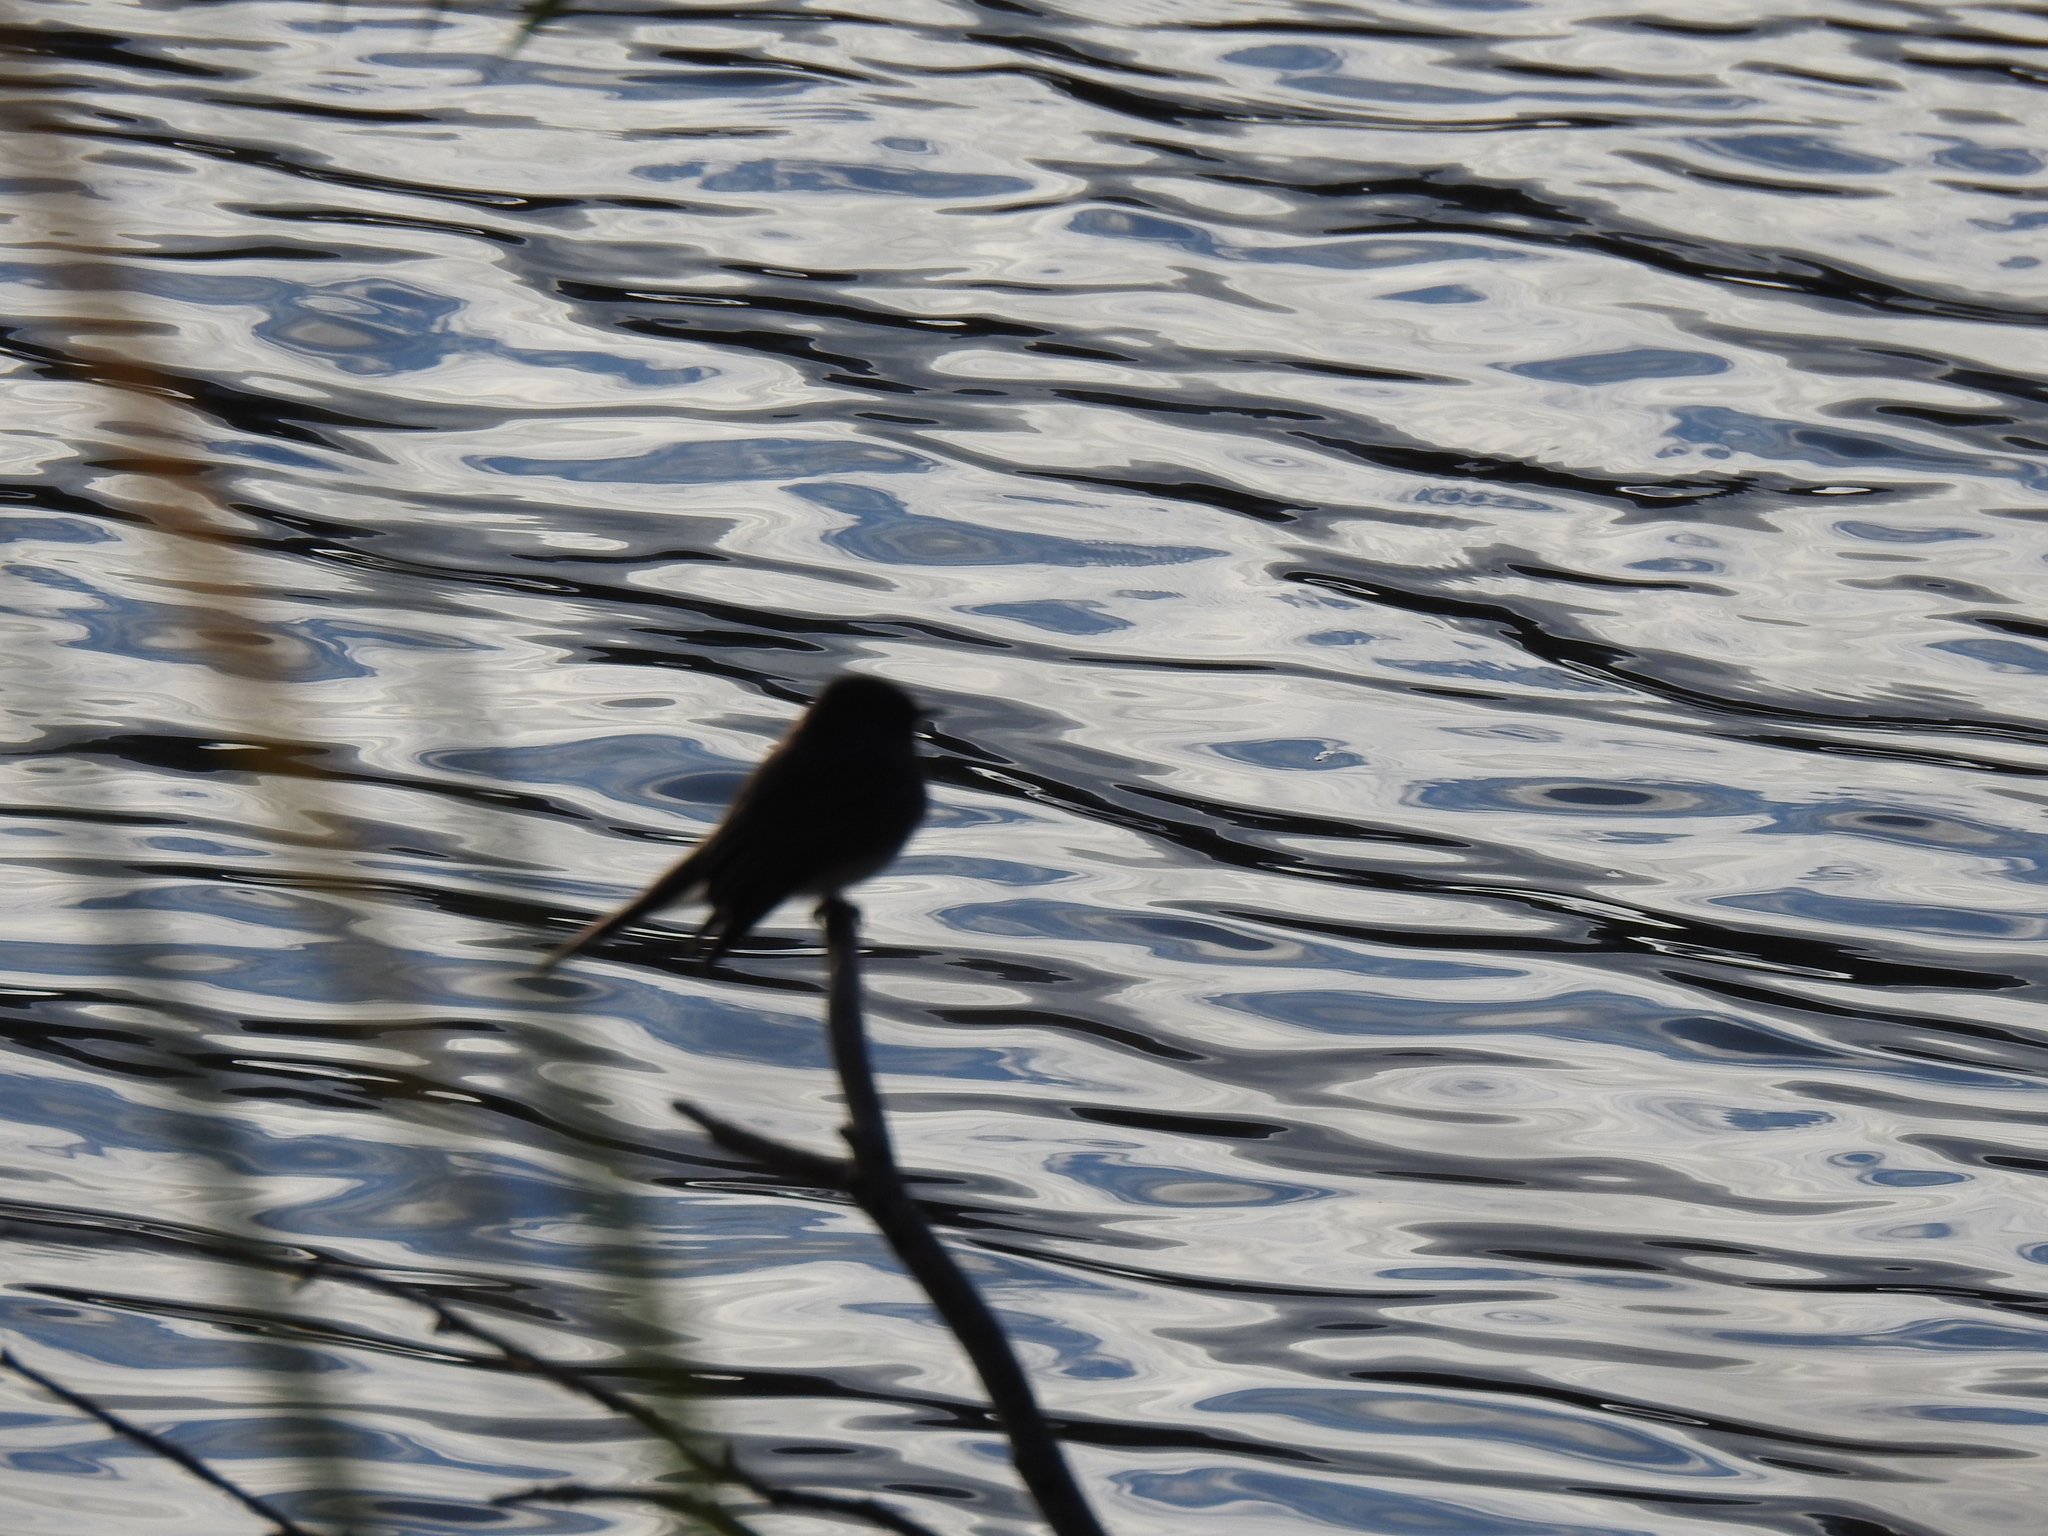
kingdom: Animalia
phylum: Chordata
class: Aves
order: Passeriformes
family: Tyrannidae
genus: Sayornis
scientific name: Sayornis nigricans
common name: Black phoebe
